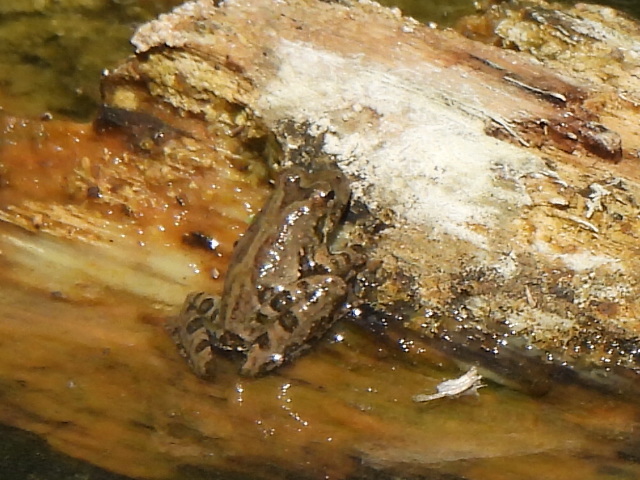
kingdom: Animalia
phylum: Chordata
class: Amphibia
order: Anura
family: Hylidae
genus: Acris
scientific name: Acris blanchardi
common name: Blanchard's cricket frog
